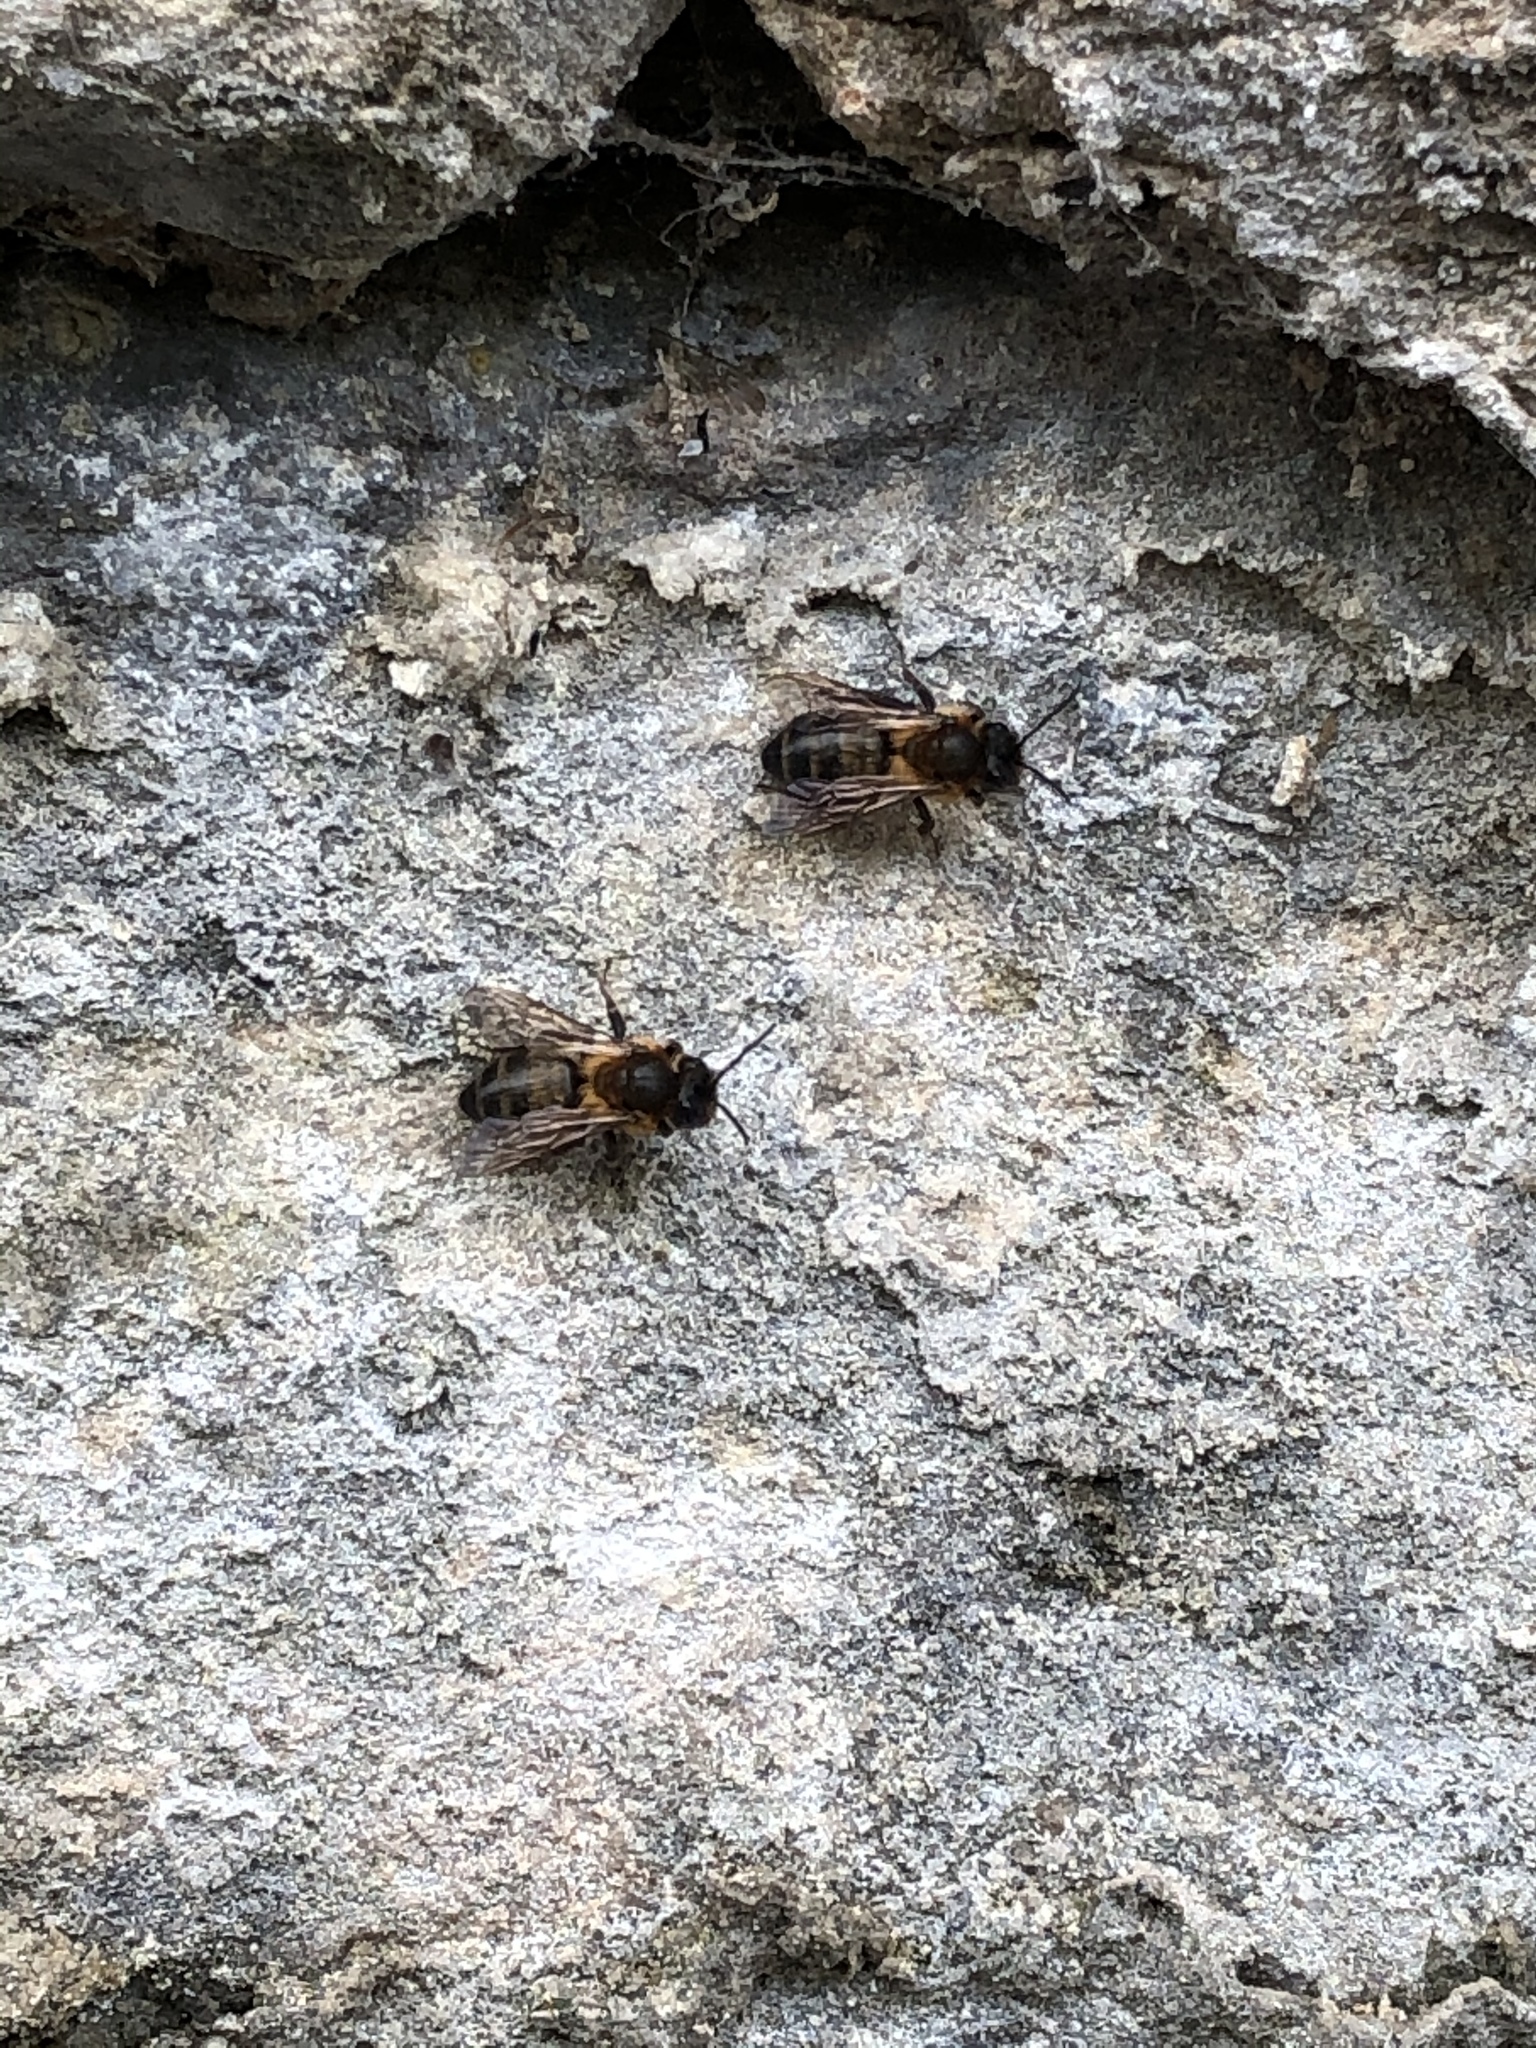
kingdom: Animalia
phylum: Arthropoda
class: Insecta
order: Hymenoptera
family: Andrenidae
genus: Andrena
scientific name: Andrena carantonica
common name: Chocolate mining bee
